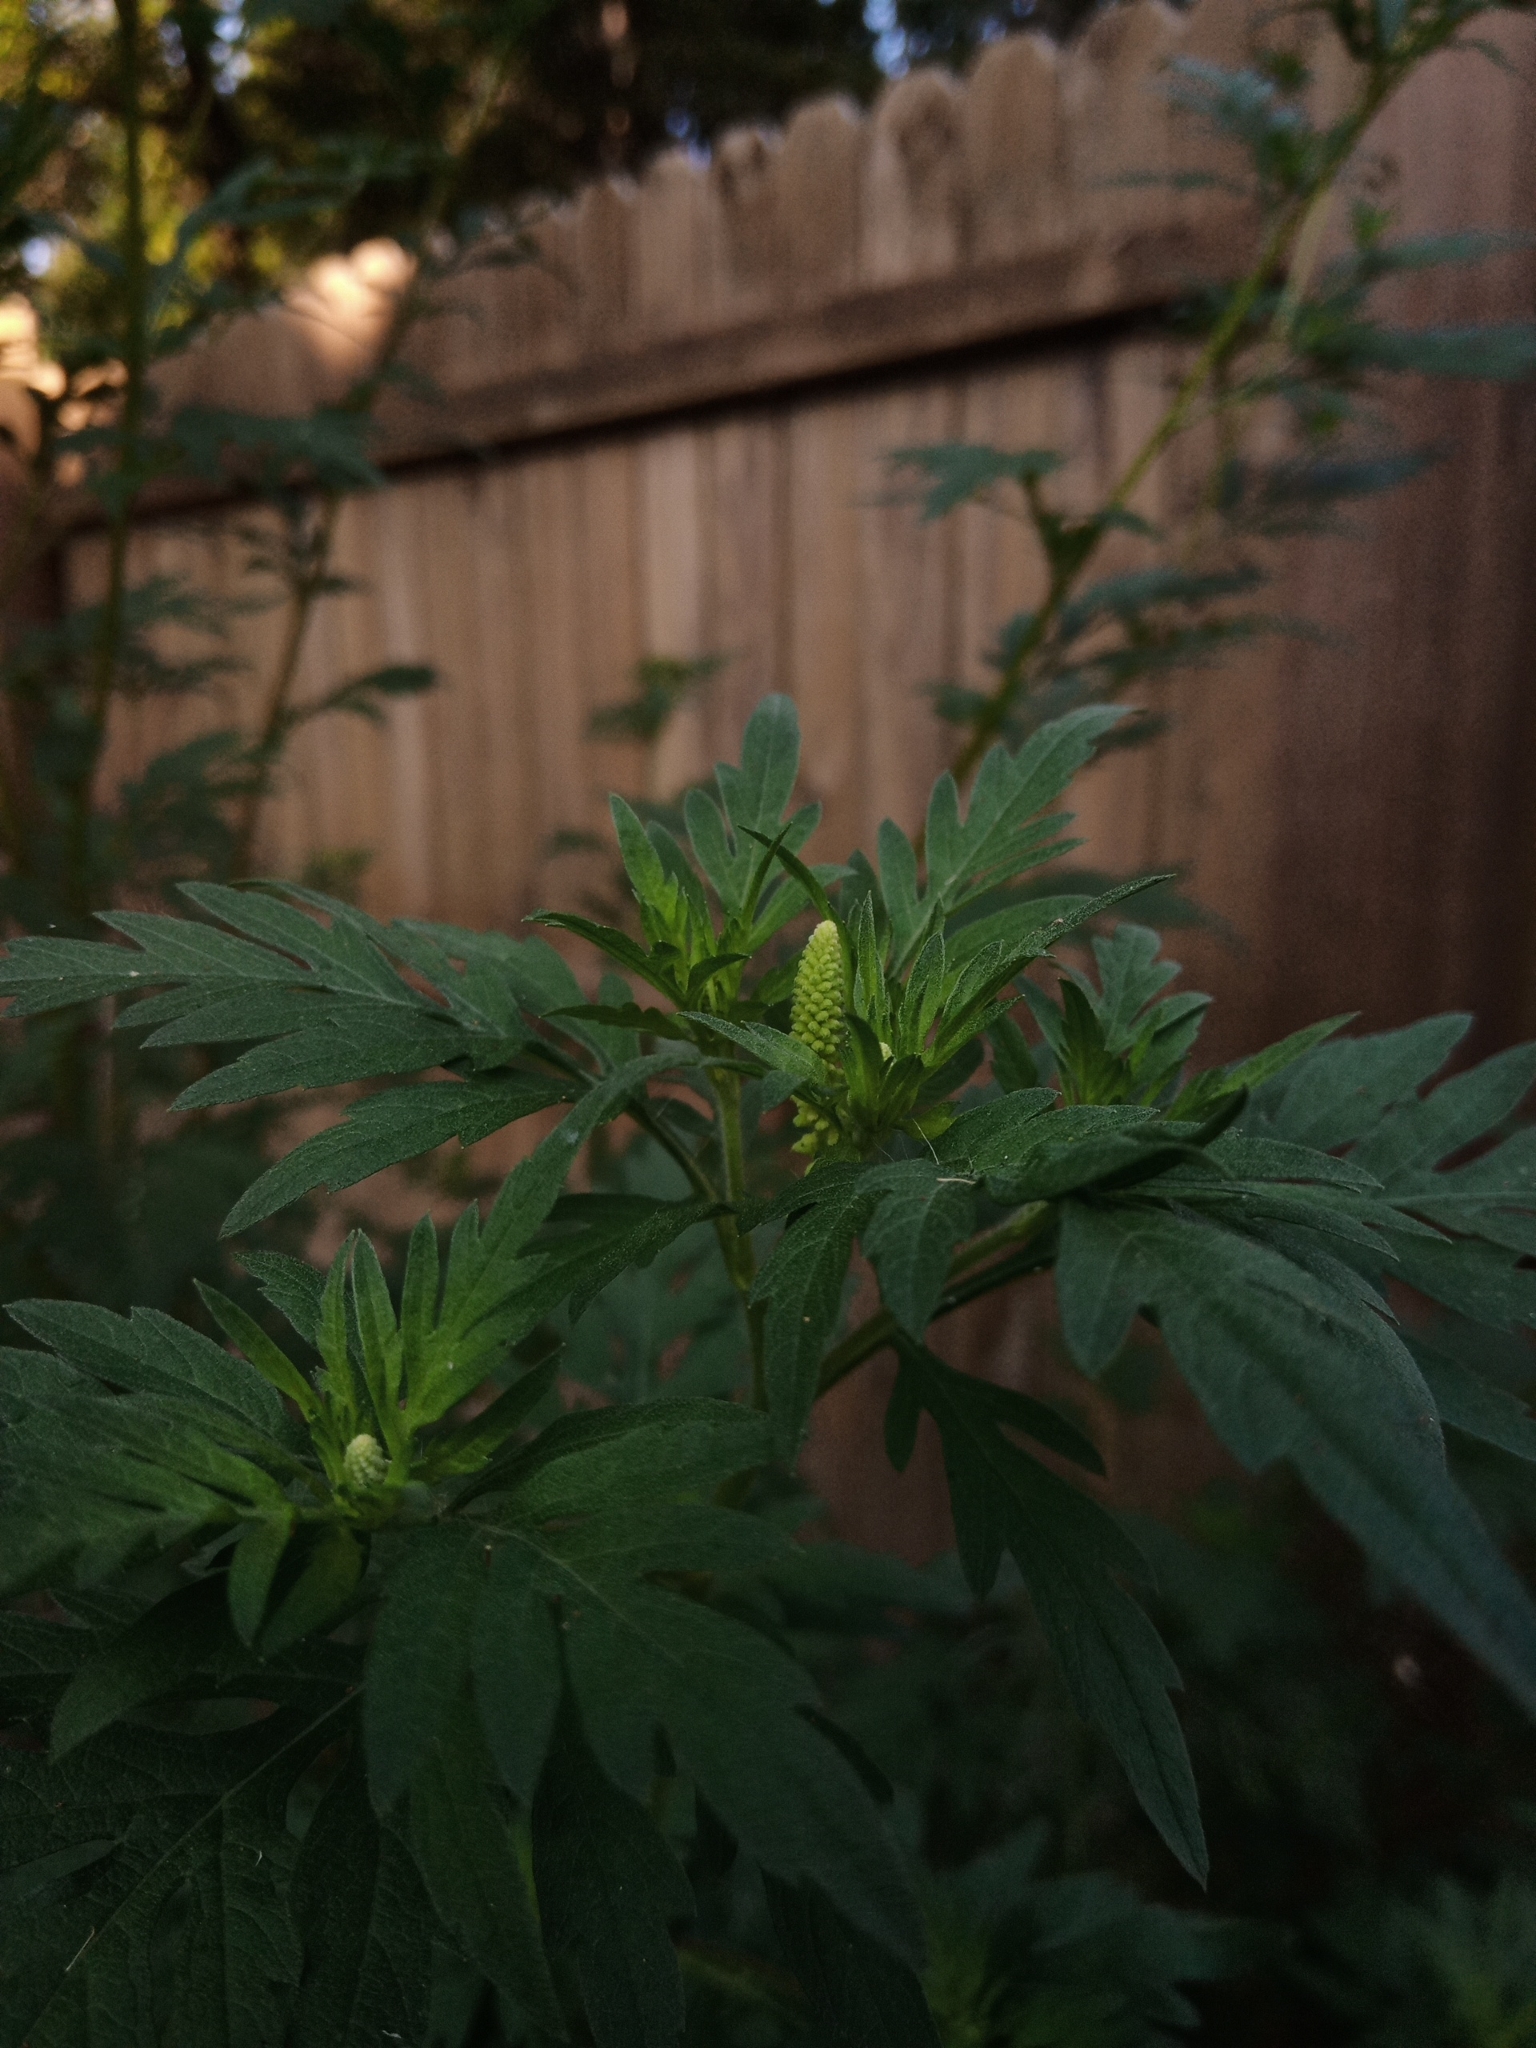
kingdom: Plantae
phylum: Tracheophyta
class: Magnoliopsida
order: Asterales
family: Asteraceae
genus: Ambrosia
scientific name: Ambrosia artemisiifolia
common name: Annual ragweed
